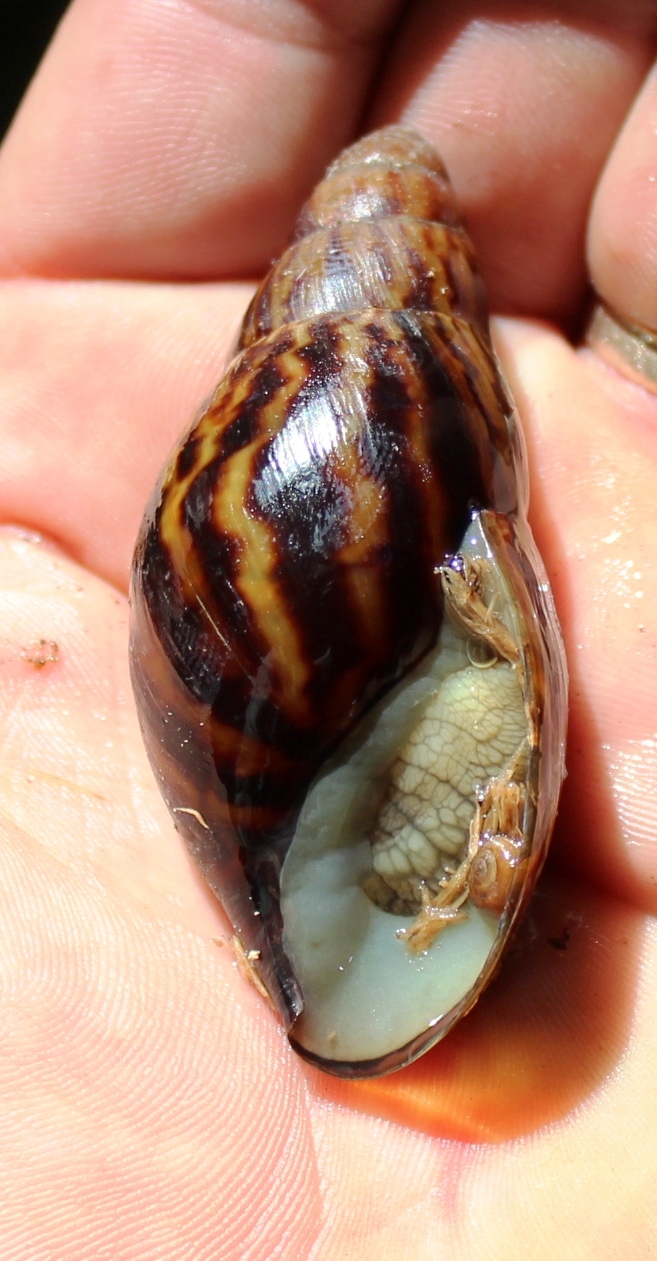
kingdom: Animalia
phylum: Mollusca
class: Gastropoda
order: Stylommatophora
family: Achatinidae
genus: Cochlitoma
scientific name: Cochlitoma zebra
